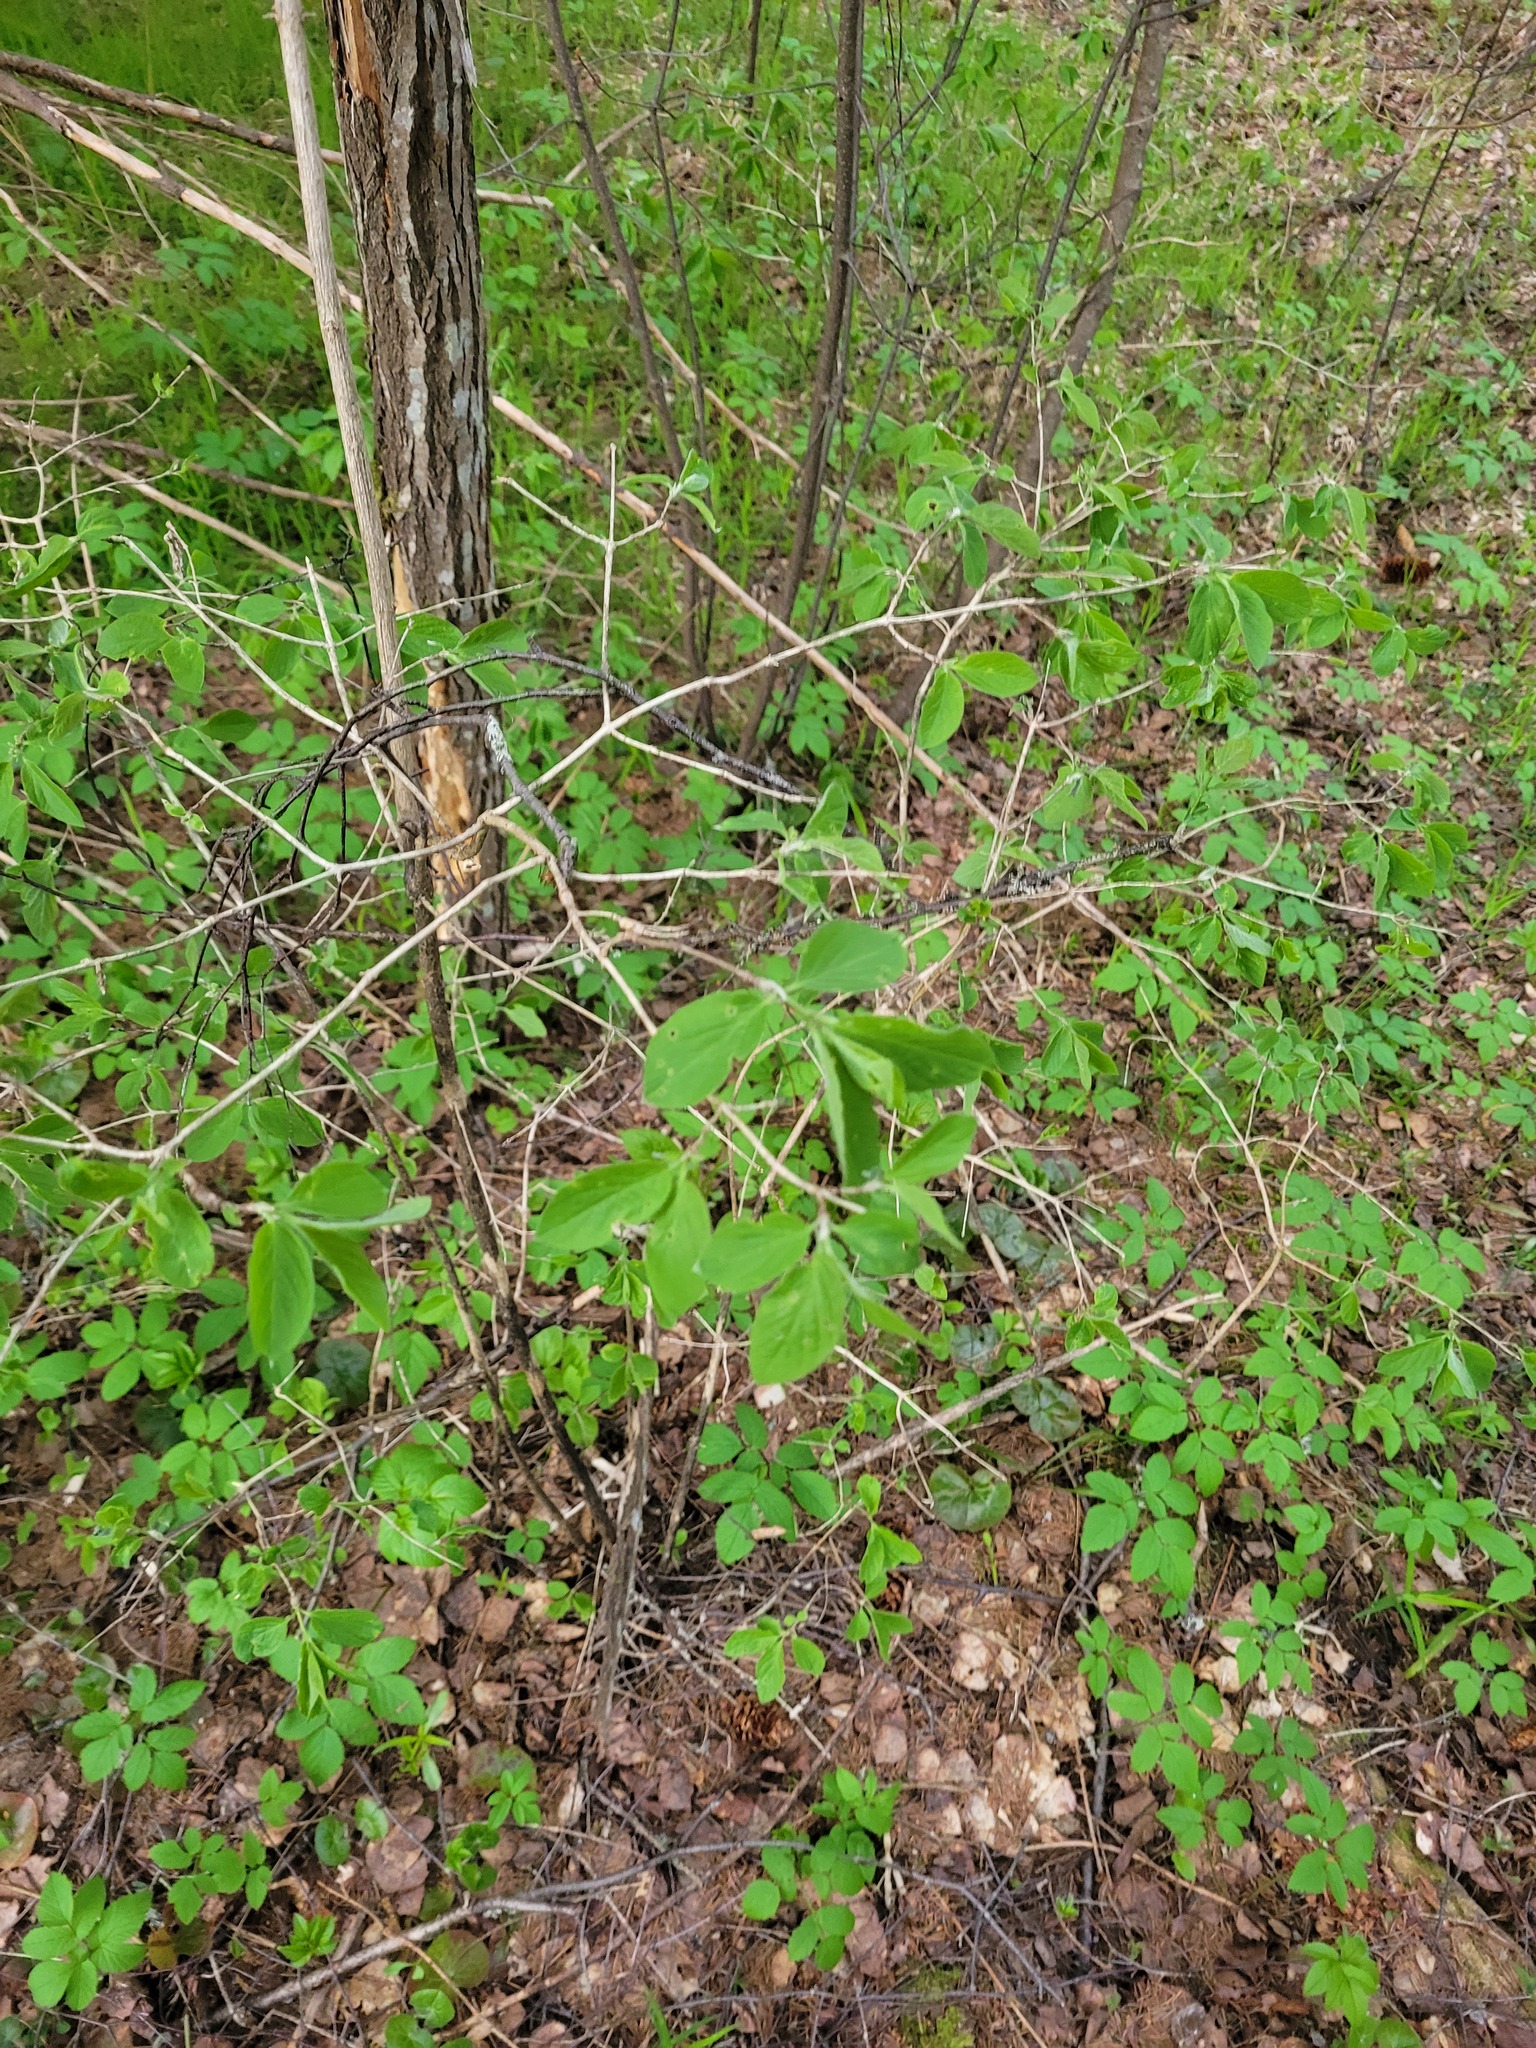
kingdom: Plantae
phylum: Tracheophyta
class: Magnoliopsida
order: Dipsacales
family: Caprifoliaceae
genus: Lonicera
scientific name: Lonicera xylosteum
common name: Fly honeysuckle
